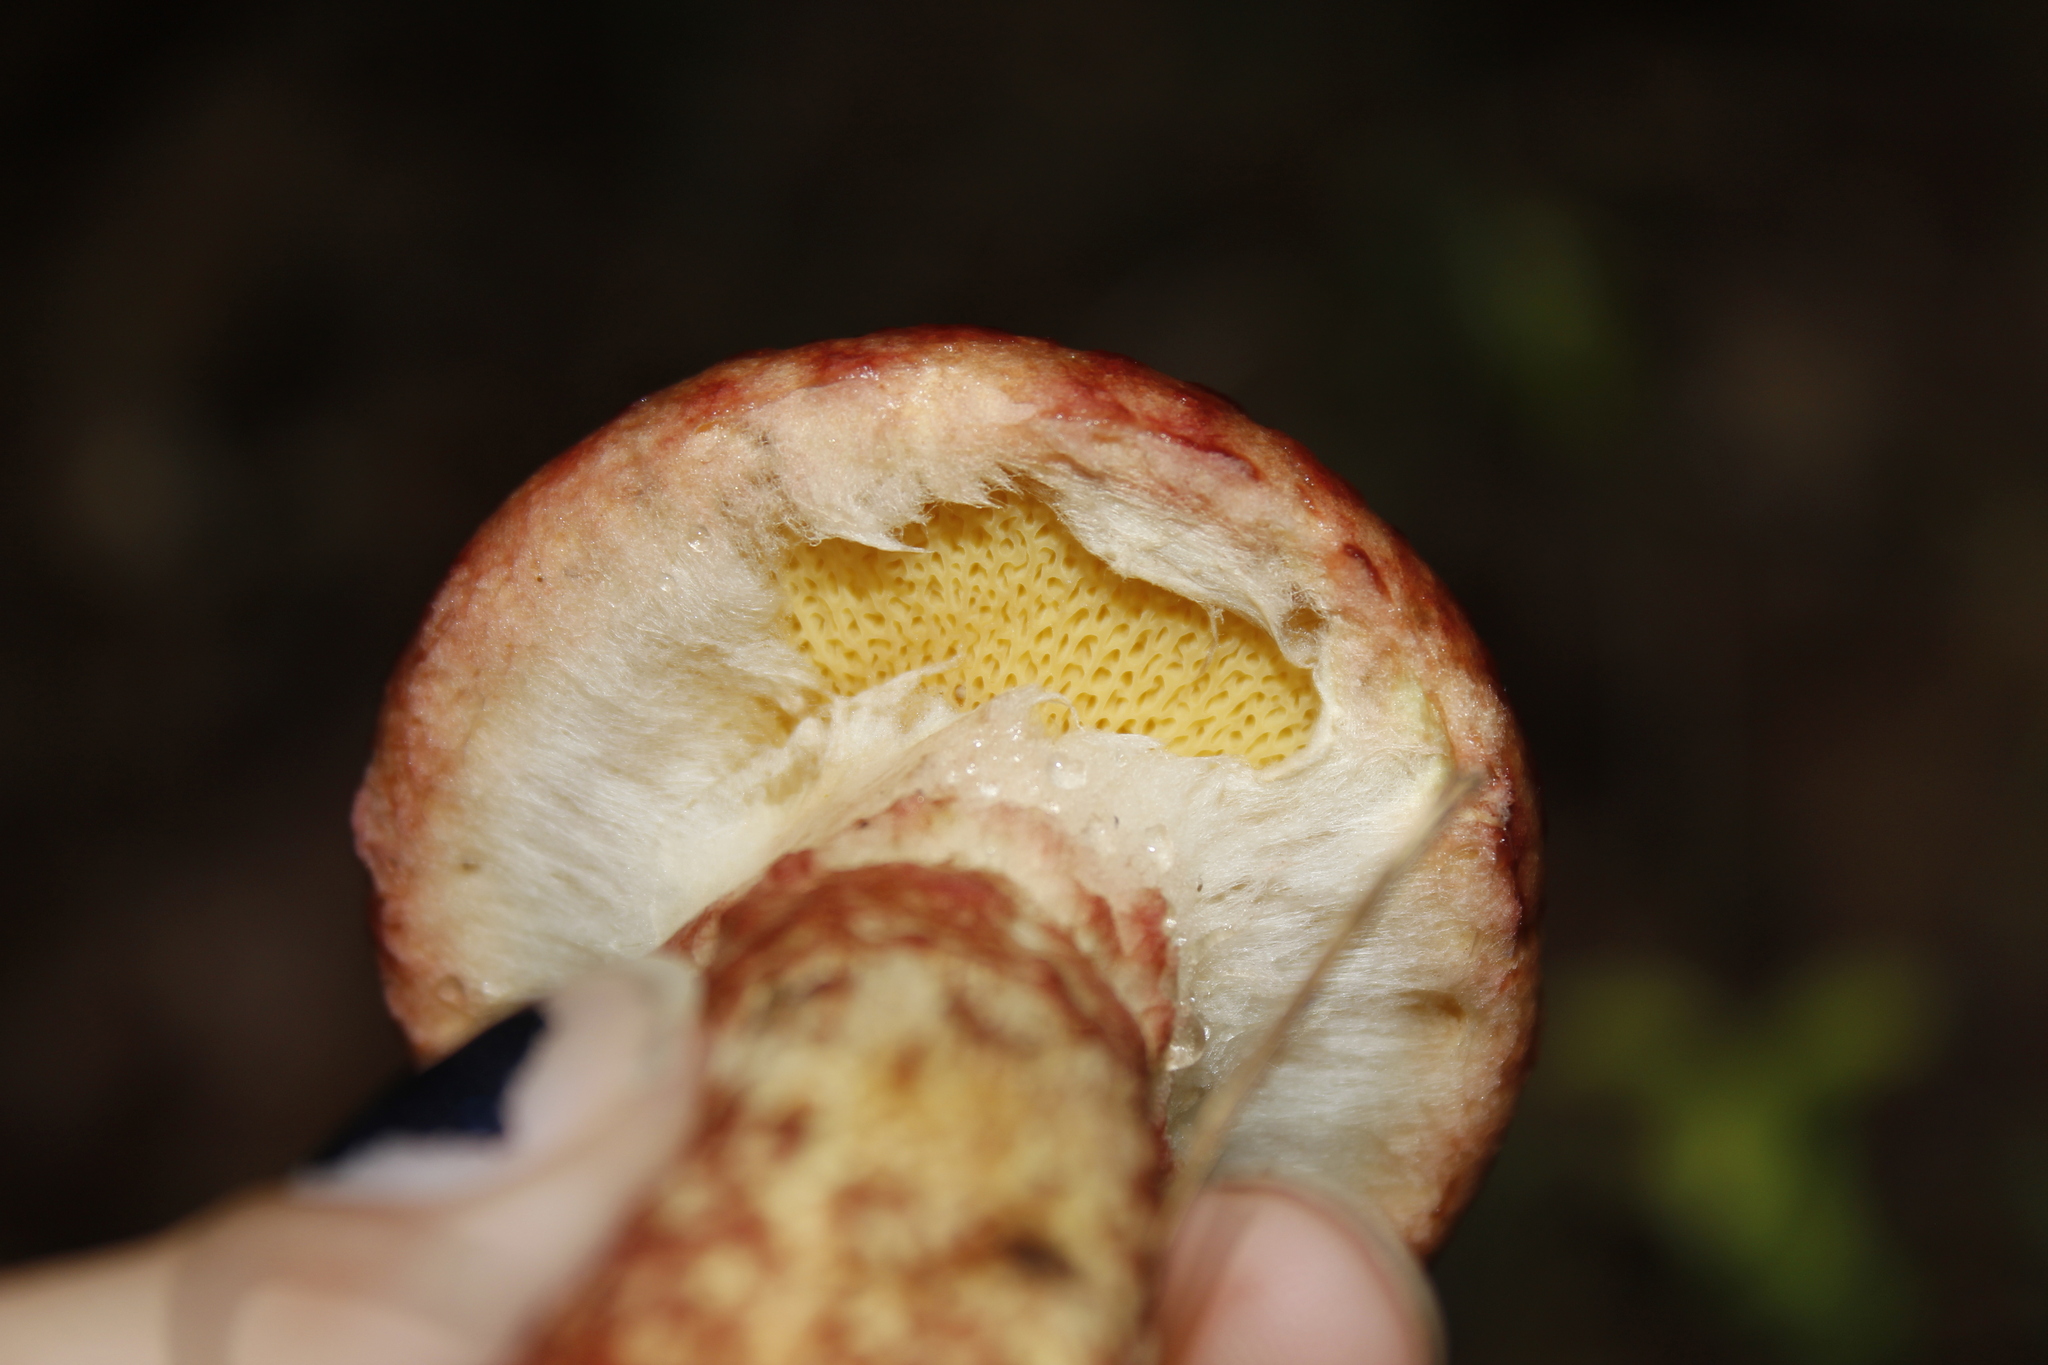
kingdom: Fungi
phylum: Basidiomycota
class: Agaricomycetes
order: Boletales
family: Suillaceae
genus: Suillus
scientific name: Suillus spraguei
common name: Painted suillus
